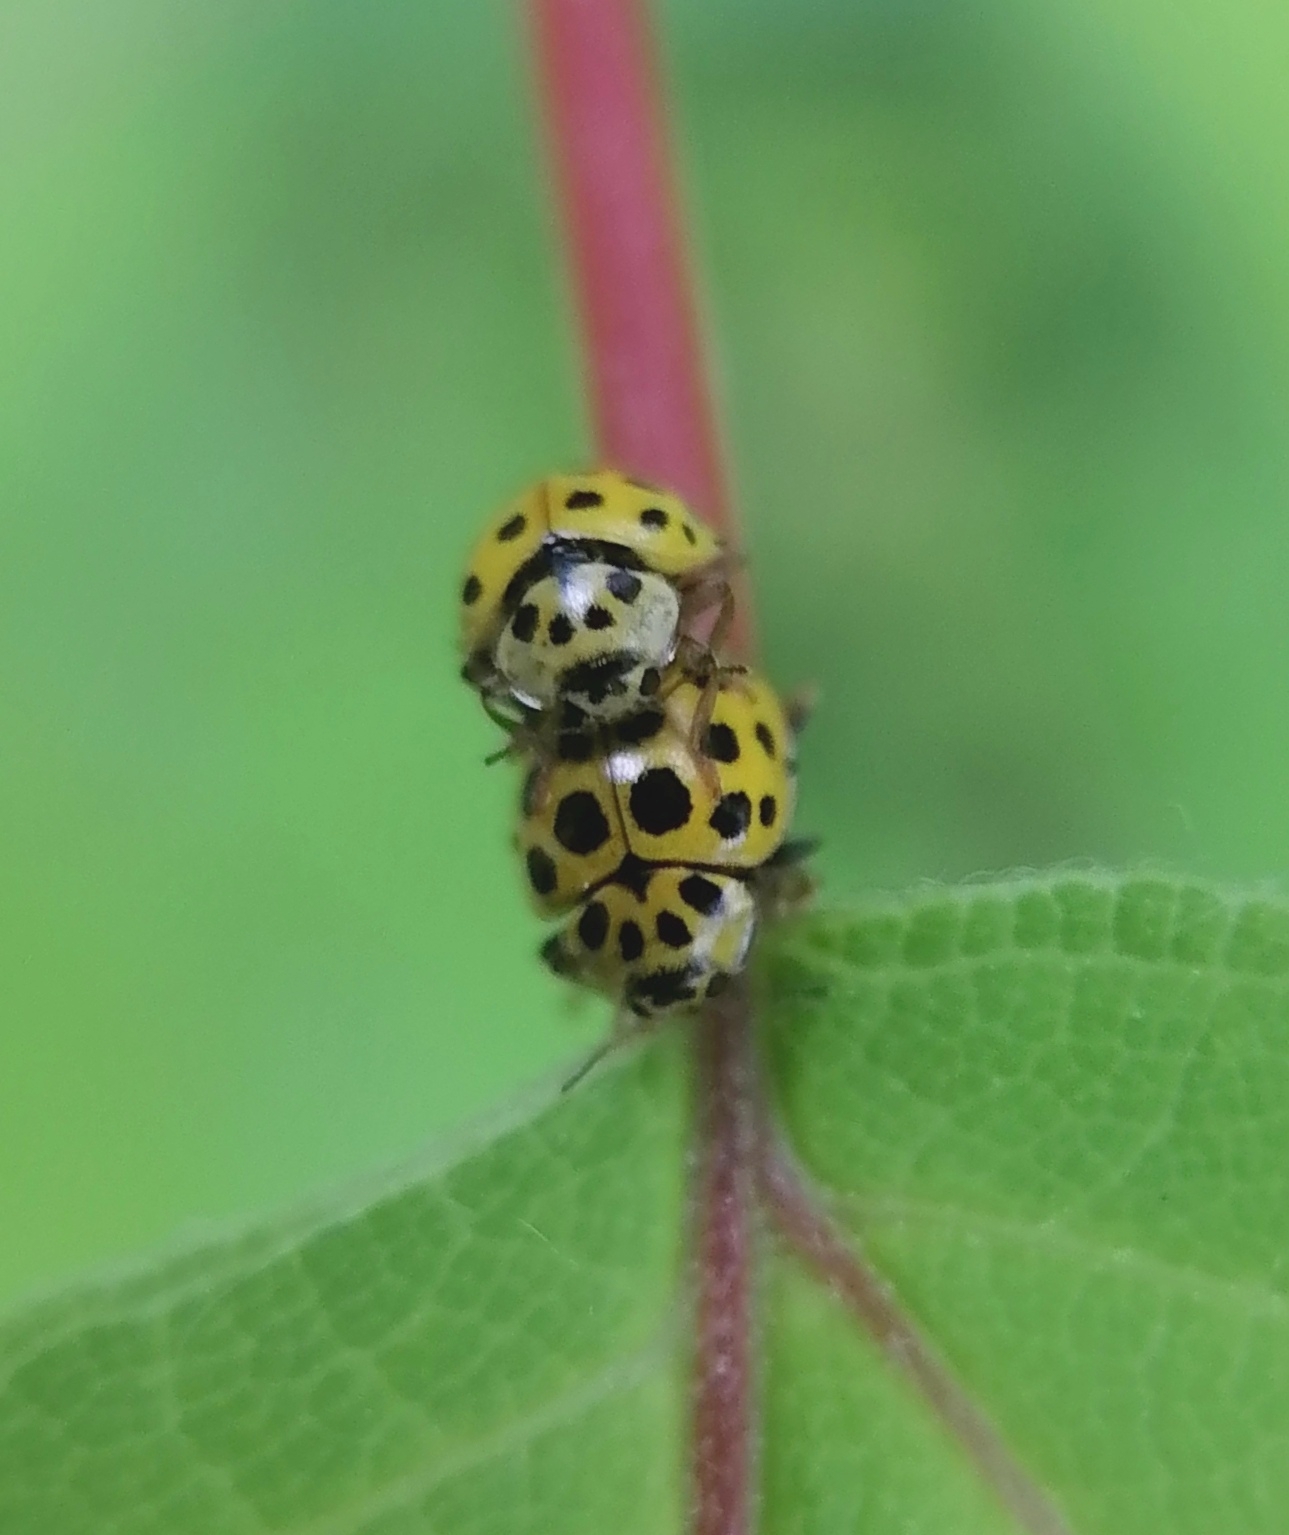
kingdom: Animalia
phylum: Arthropoda
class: Insecta
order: Coleoptera
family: Coccinellidae
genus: Psyllobora
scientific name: Psyllobora vigintiduopunctata
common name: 22-spot ladybird
